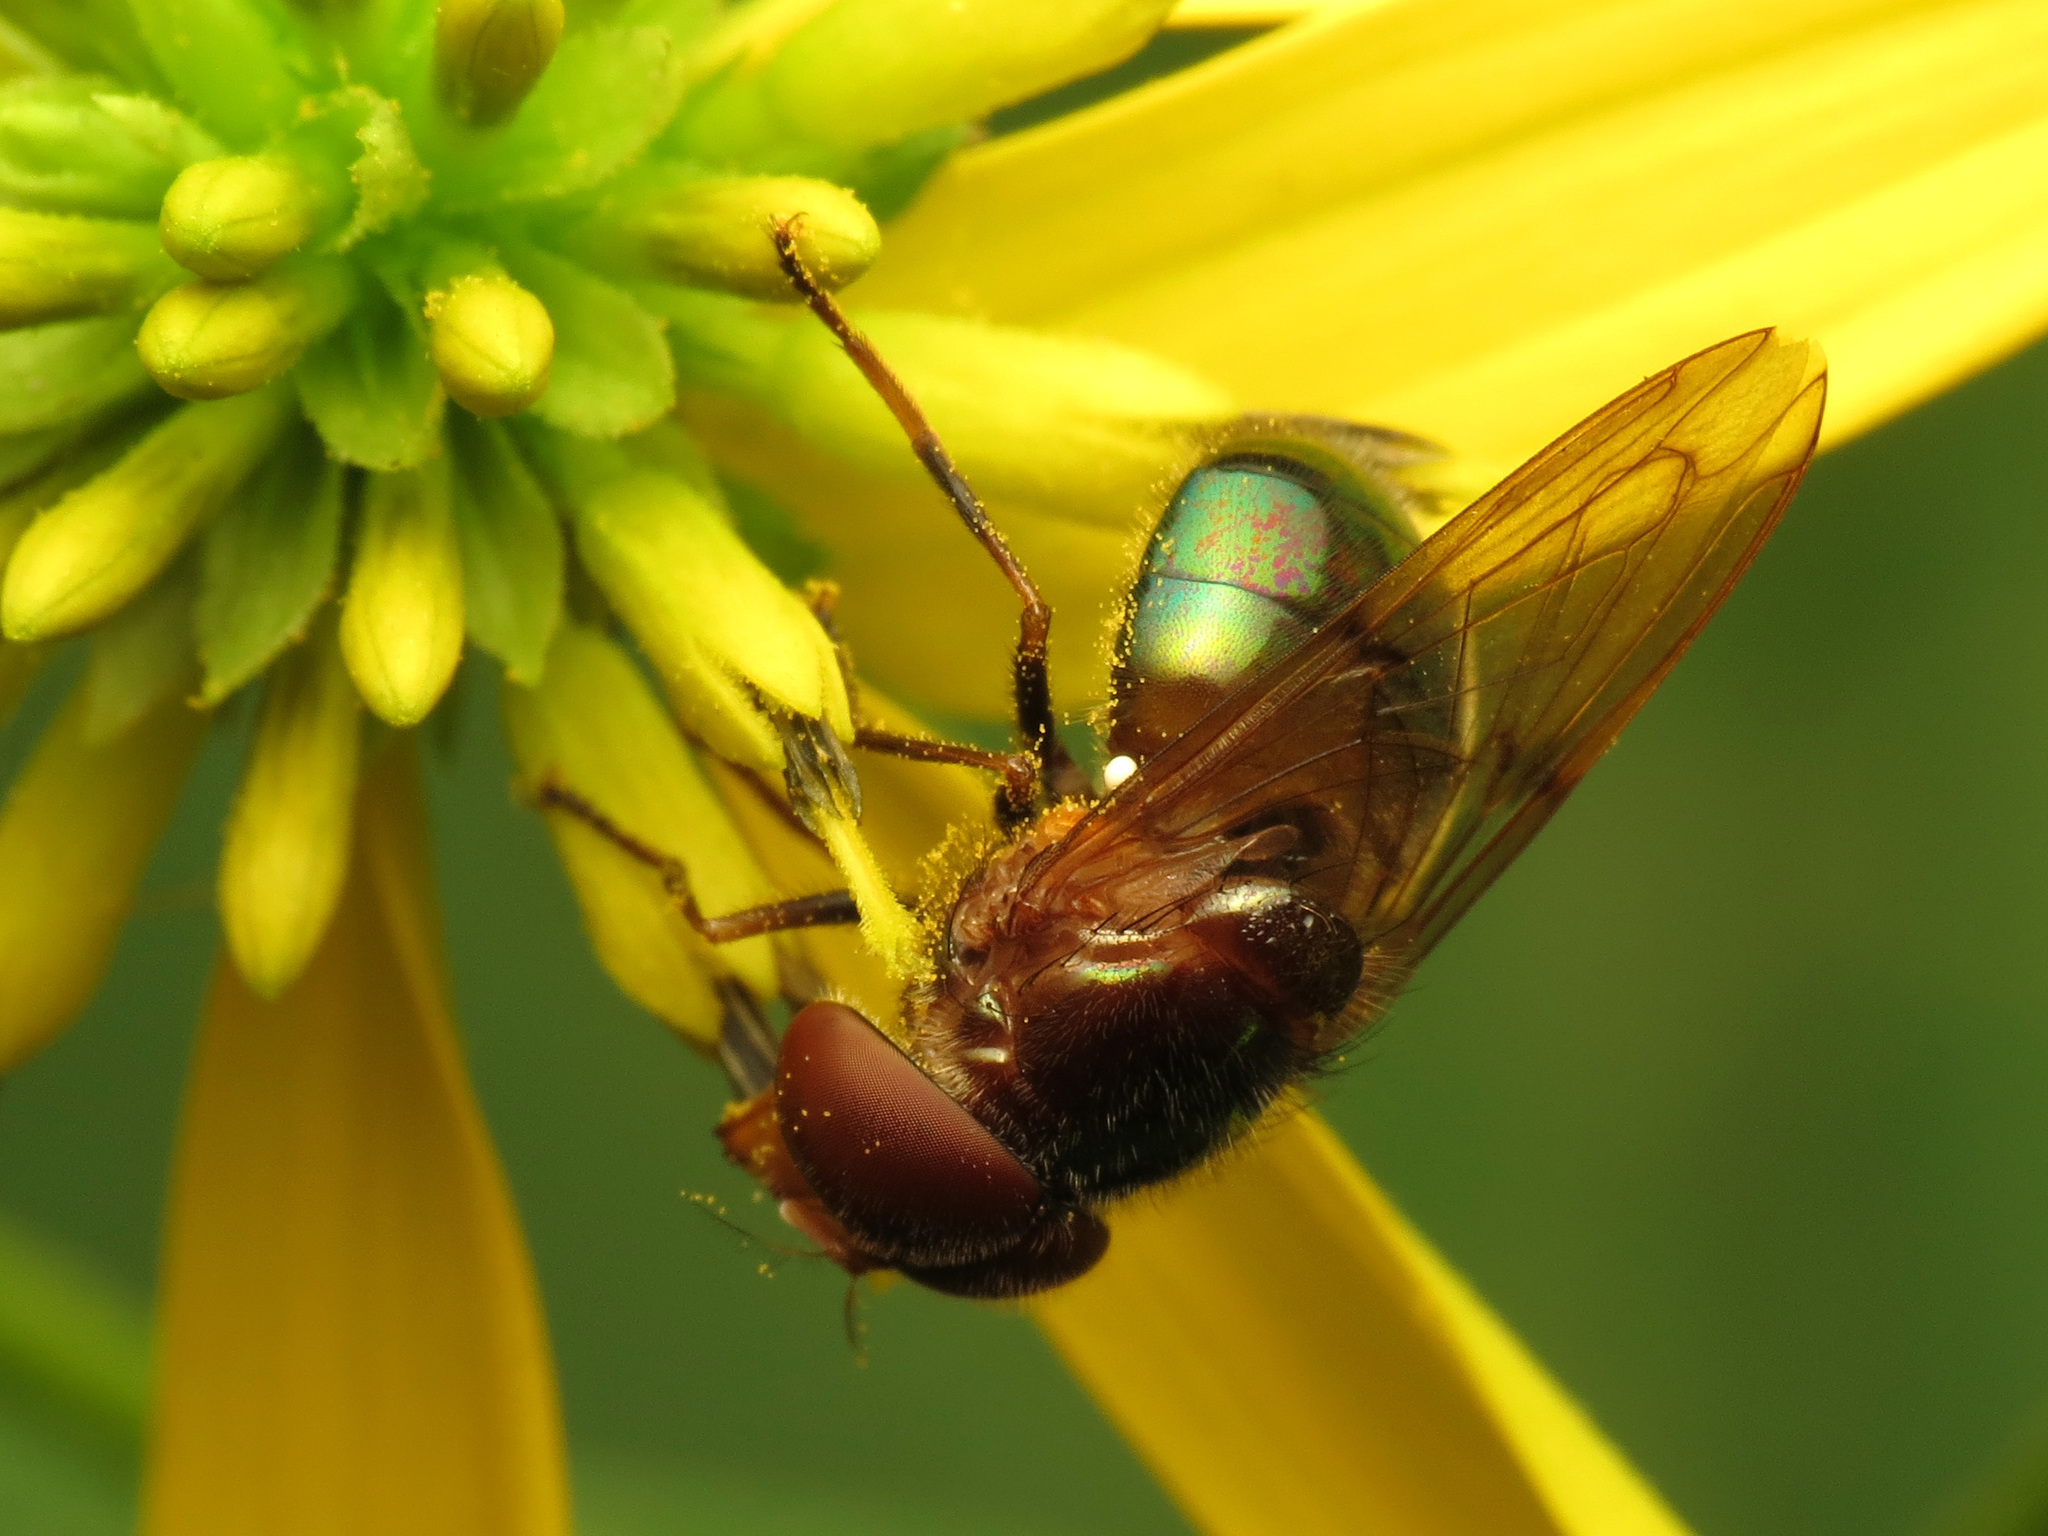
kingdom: Animalia
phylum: Arthropoda
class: Insecta
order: Diptera
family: Syrphidae
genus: Copestylum
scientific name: Copestylum vesicularium
